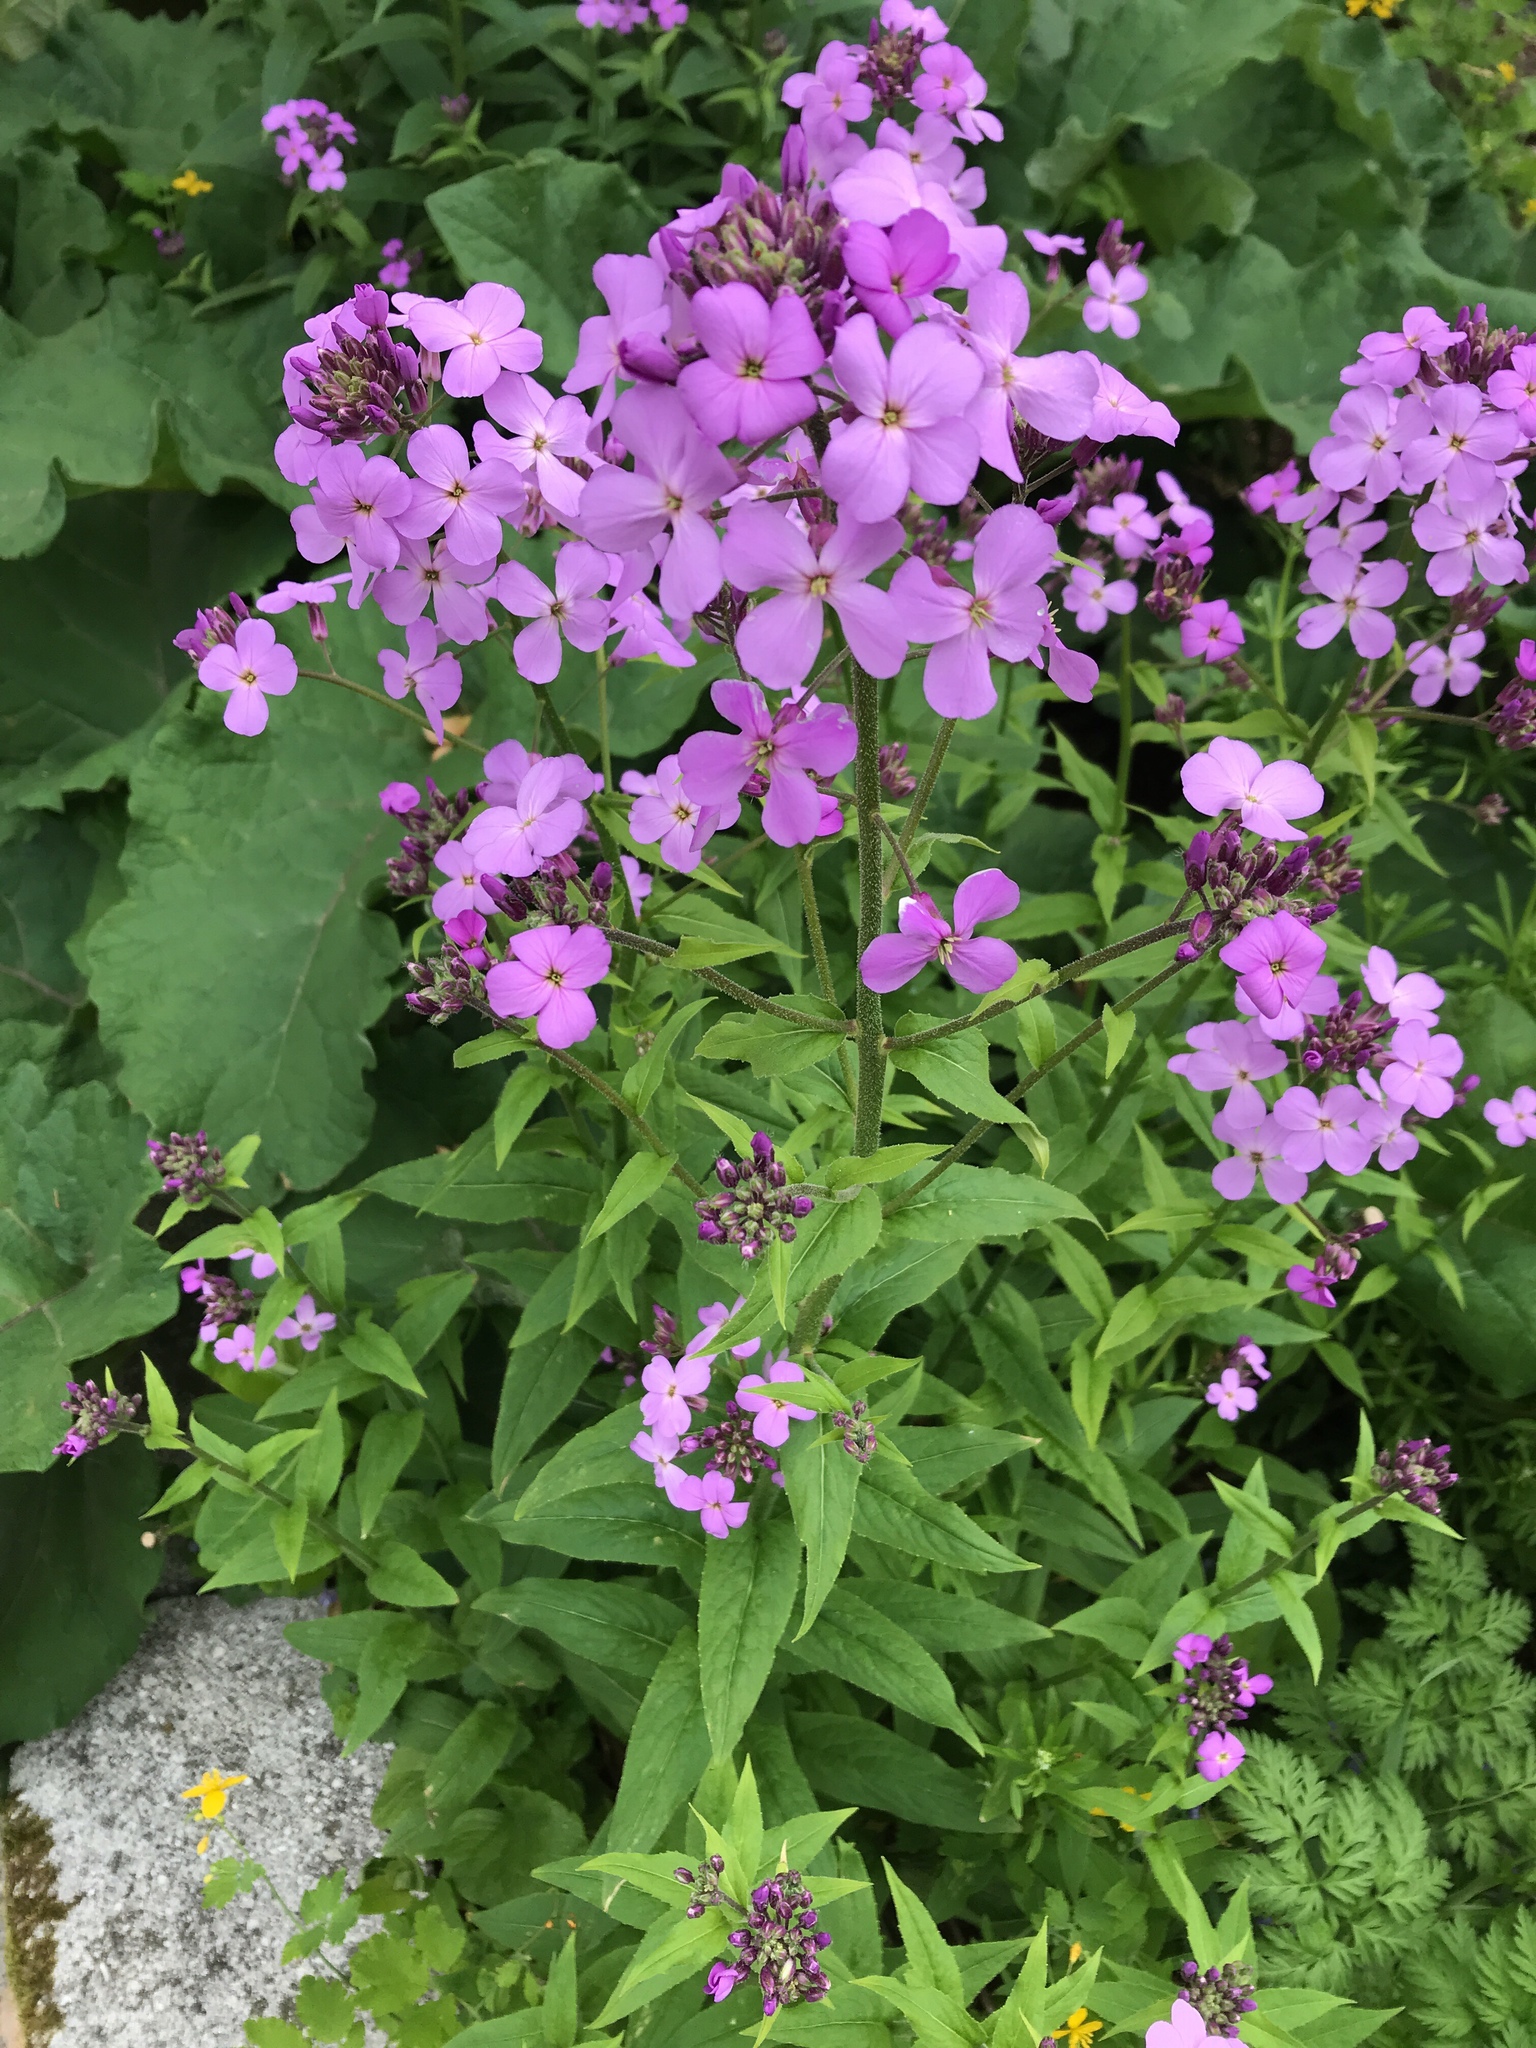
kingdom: Plantae
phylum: Tracheophyta
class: Magnoliopsida
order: Brassicales
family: Brassicaceae
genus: Hesperis
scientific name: Hesperis matronalis
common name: Dame's-violet
